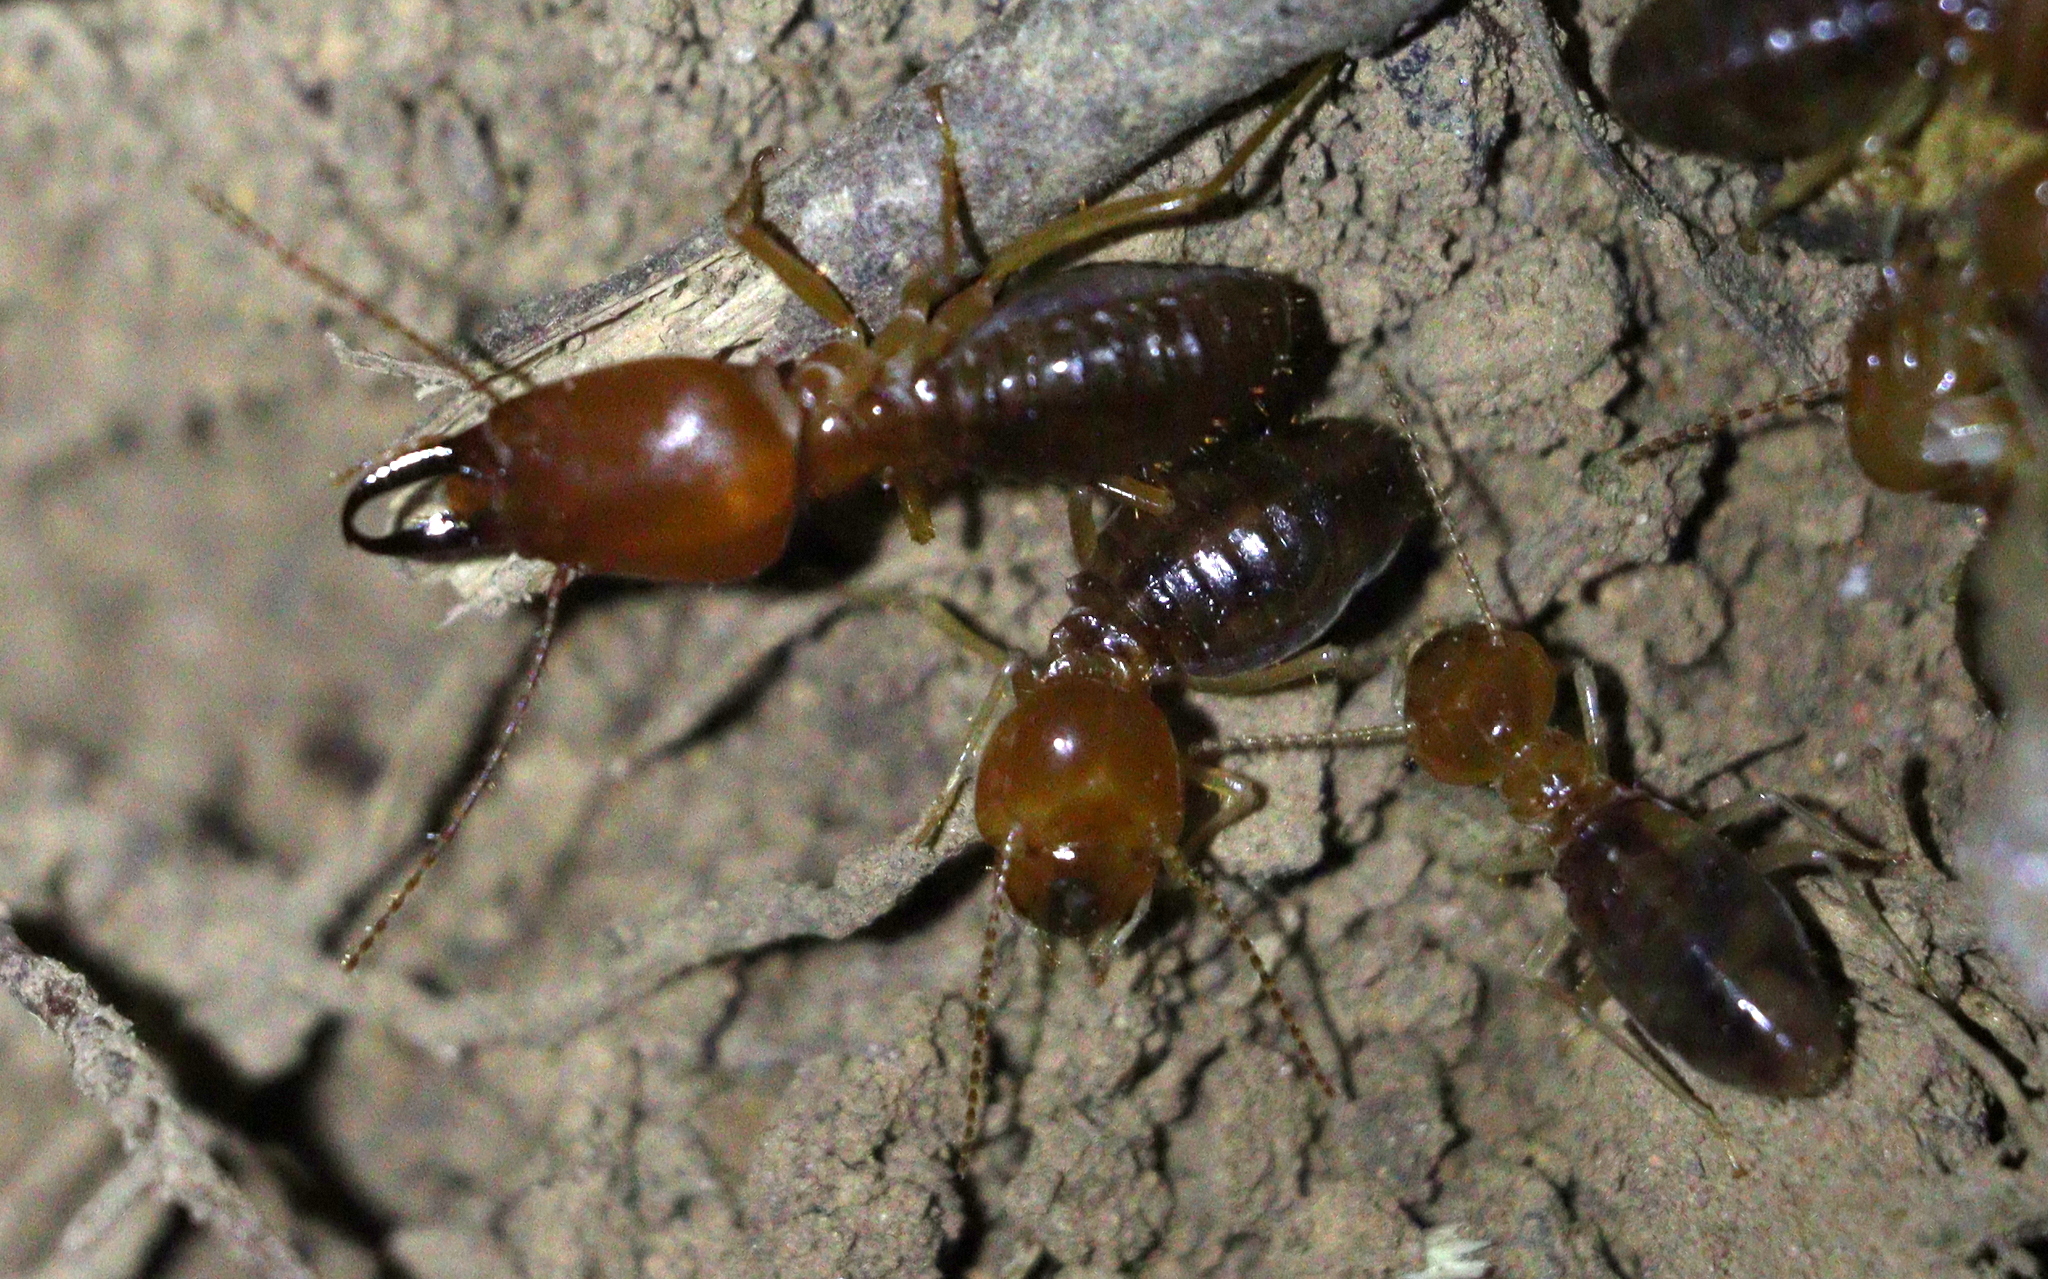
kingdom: Animalia
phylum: Arthropoda
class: Insecta
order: Blattodea
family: Termitidae
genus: Syntermes
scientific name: Syntermes molestus
